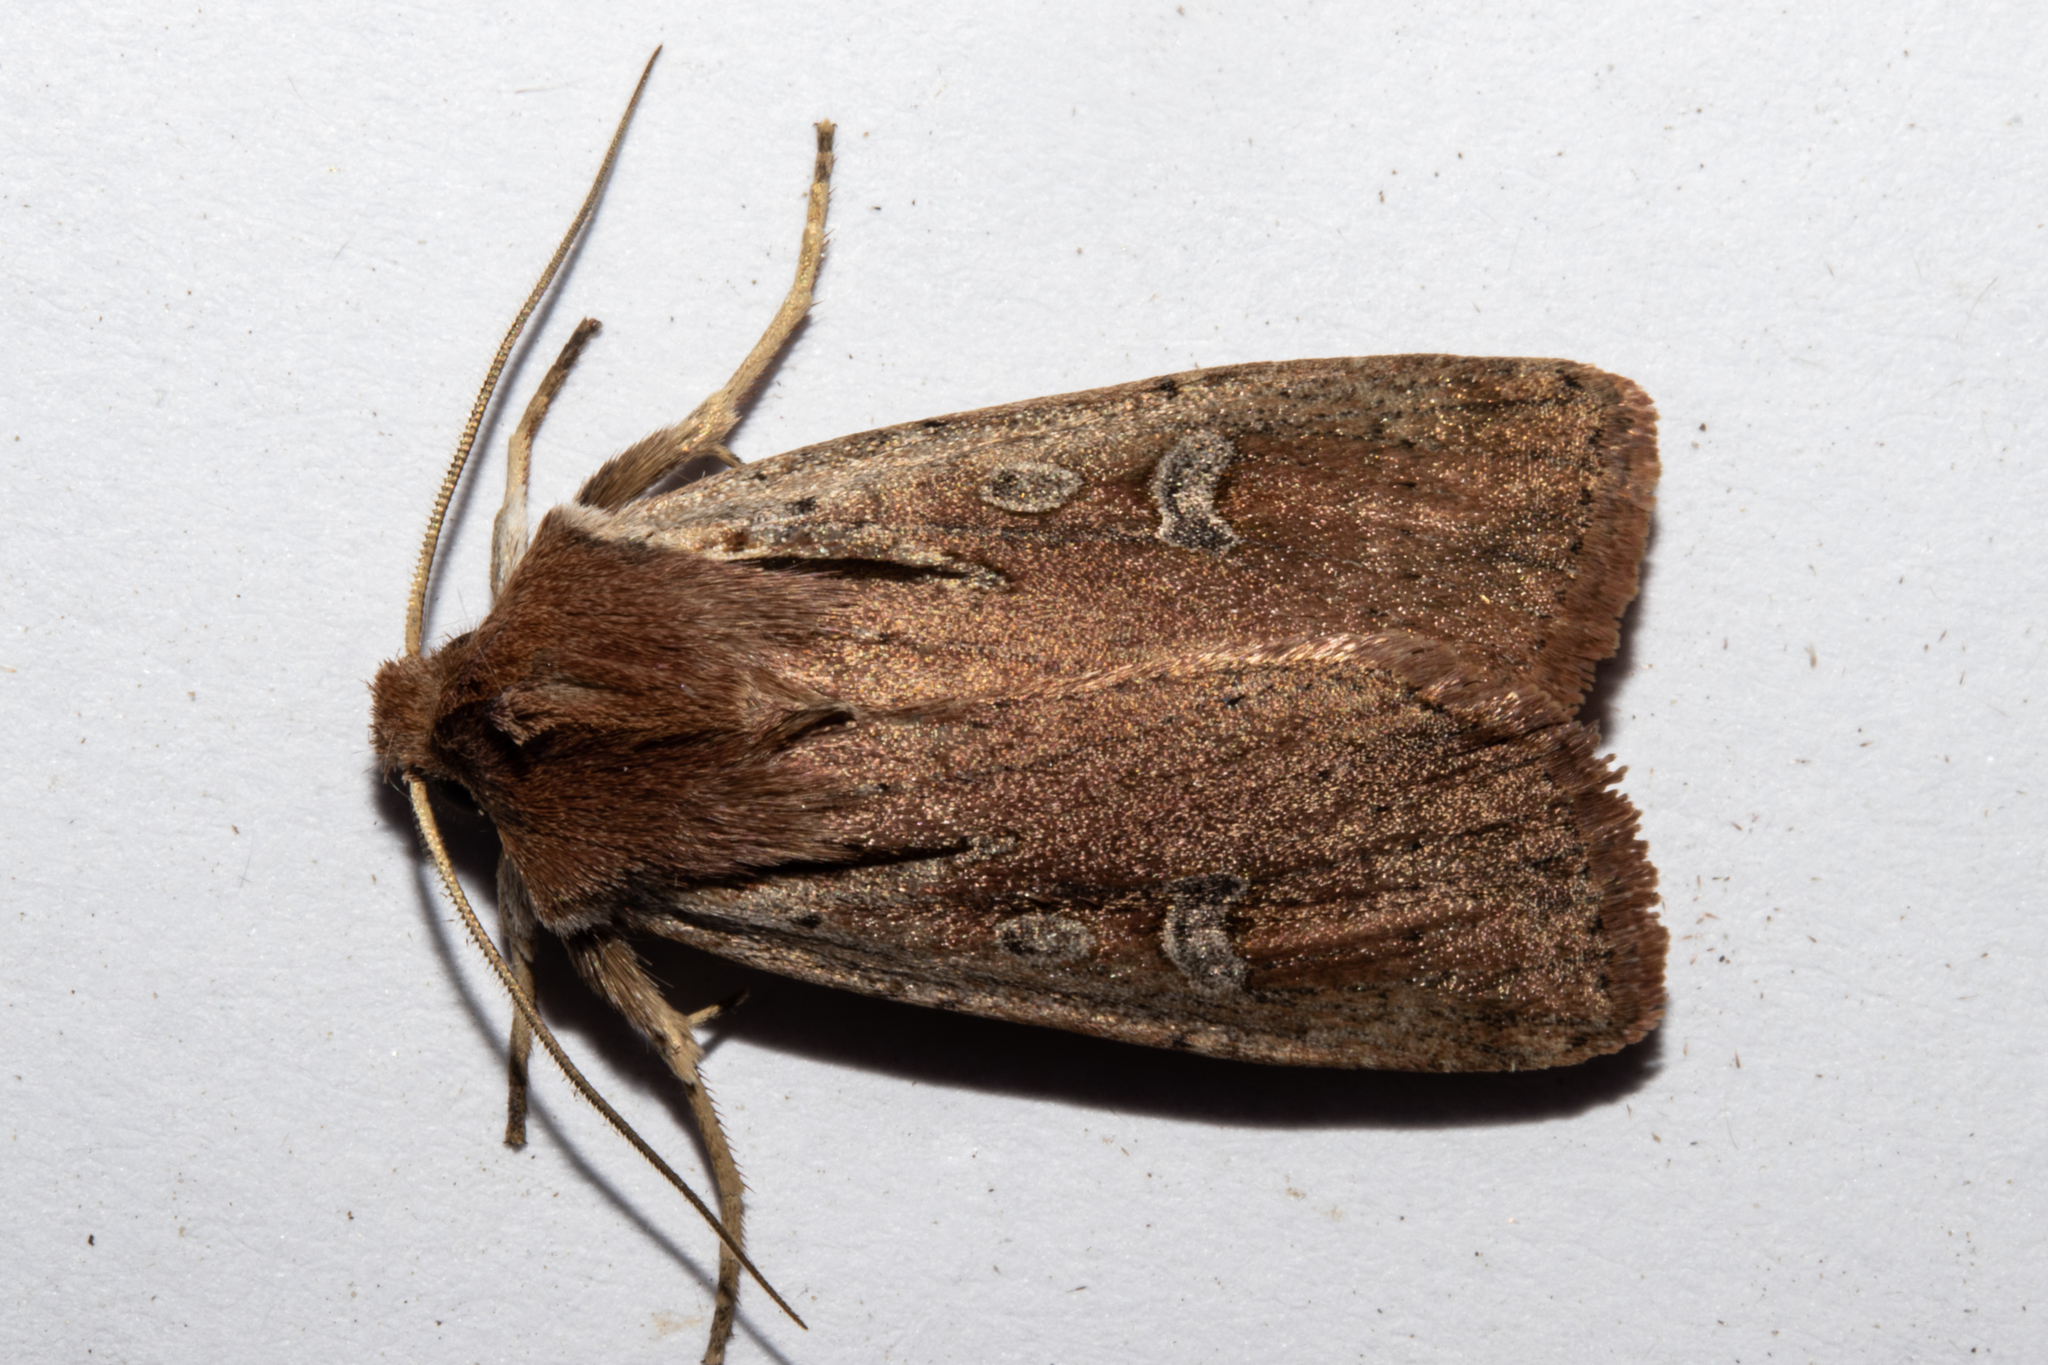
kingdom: Animalia
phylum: Arthropoda
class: Insecta
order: Lepidoptera
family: Noctuidae
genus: Ichneutica
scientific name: Ichneutica atristriga
